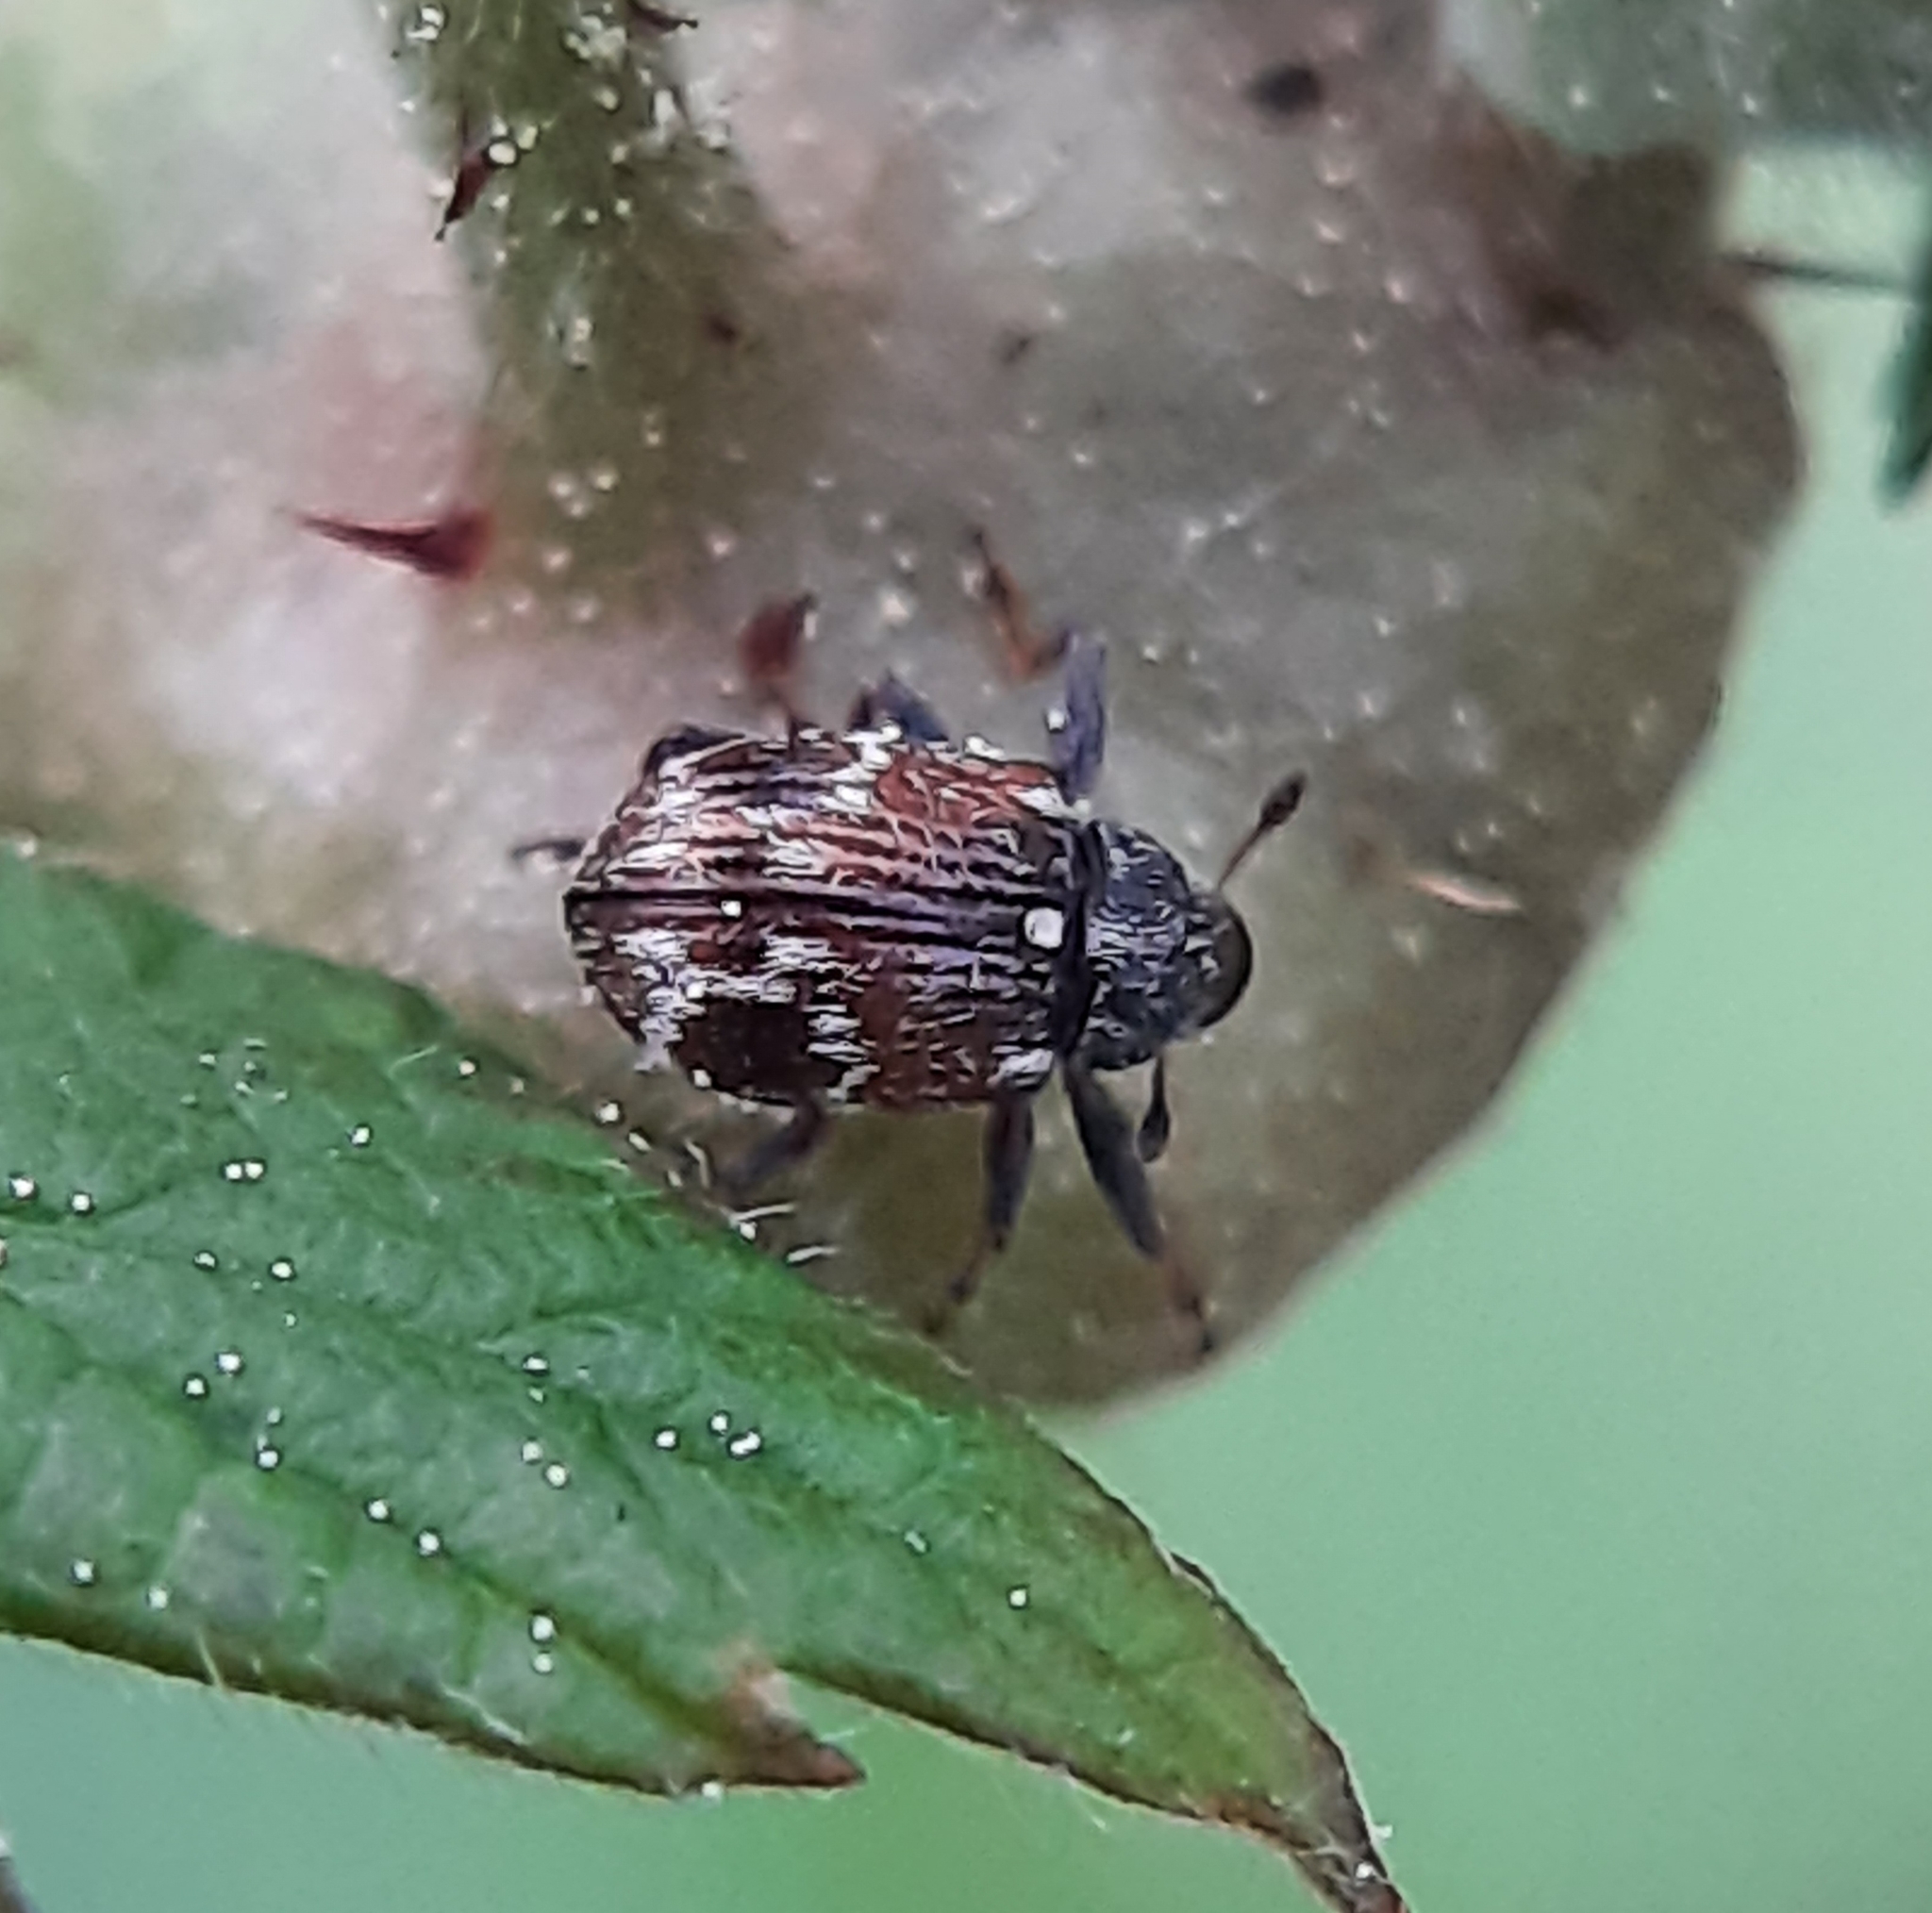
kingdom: Animalia
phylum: Arthropoda
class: Insecta
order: Coleoptera
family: Curculionidae
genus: Anthonomus
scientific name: Anthonomus signatus
